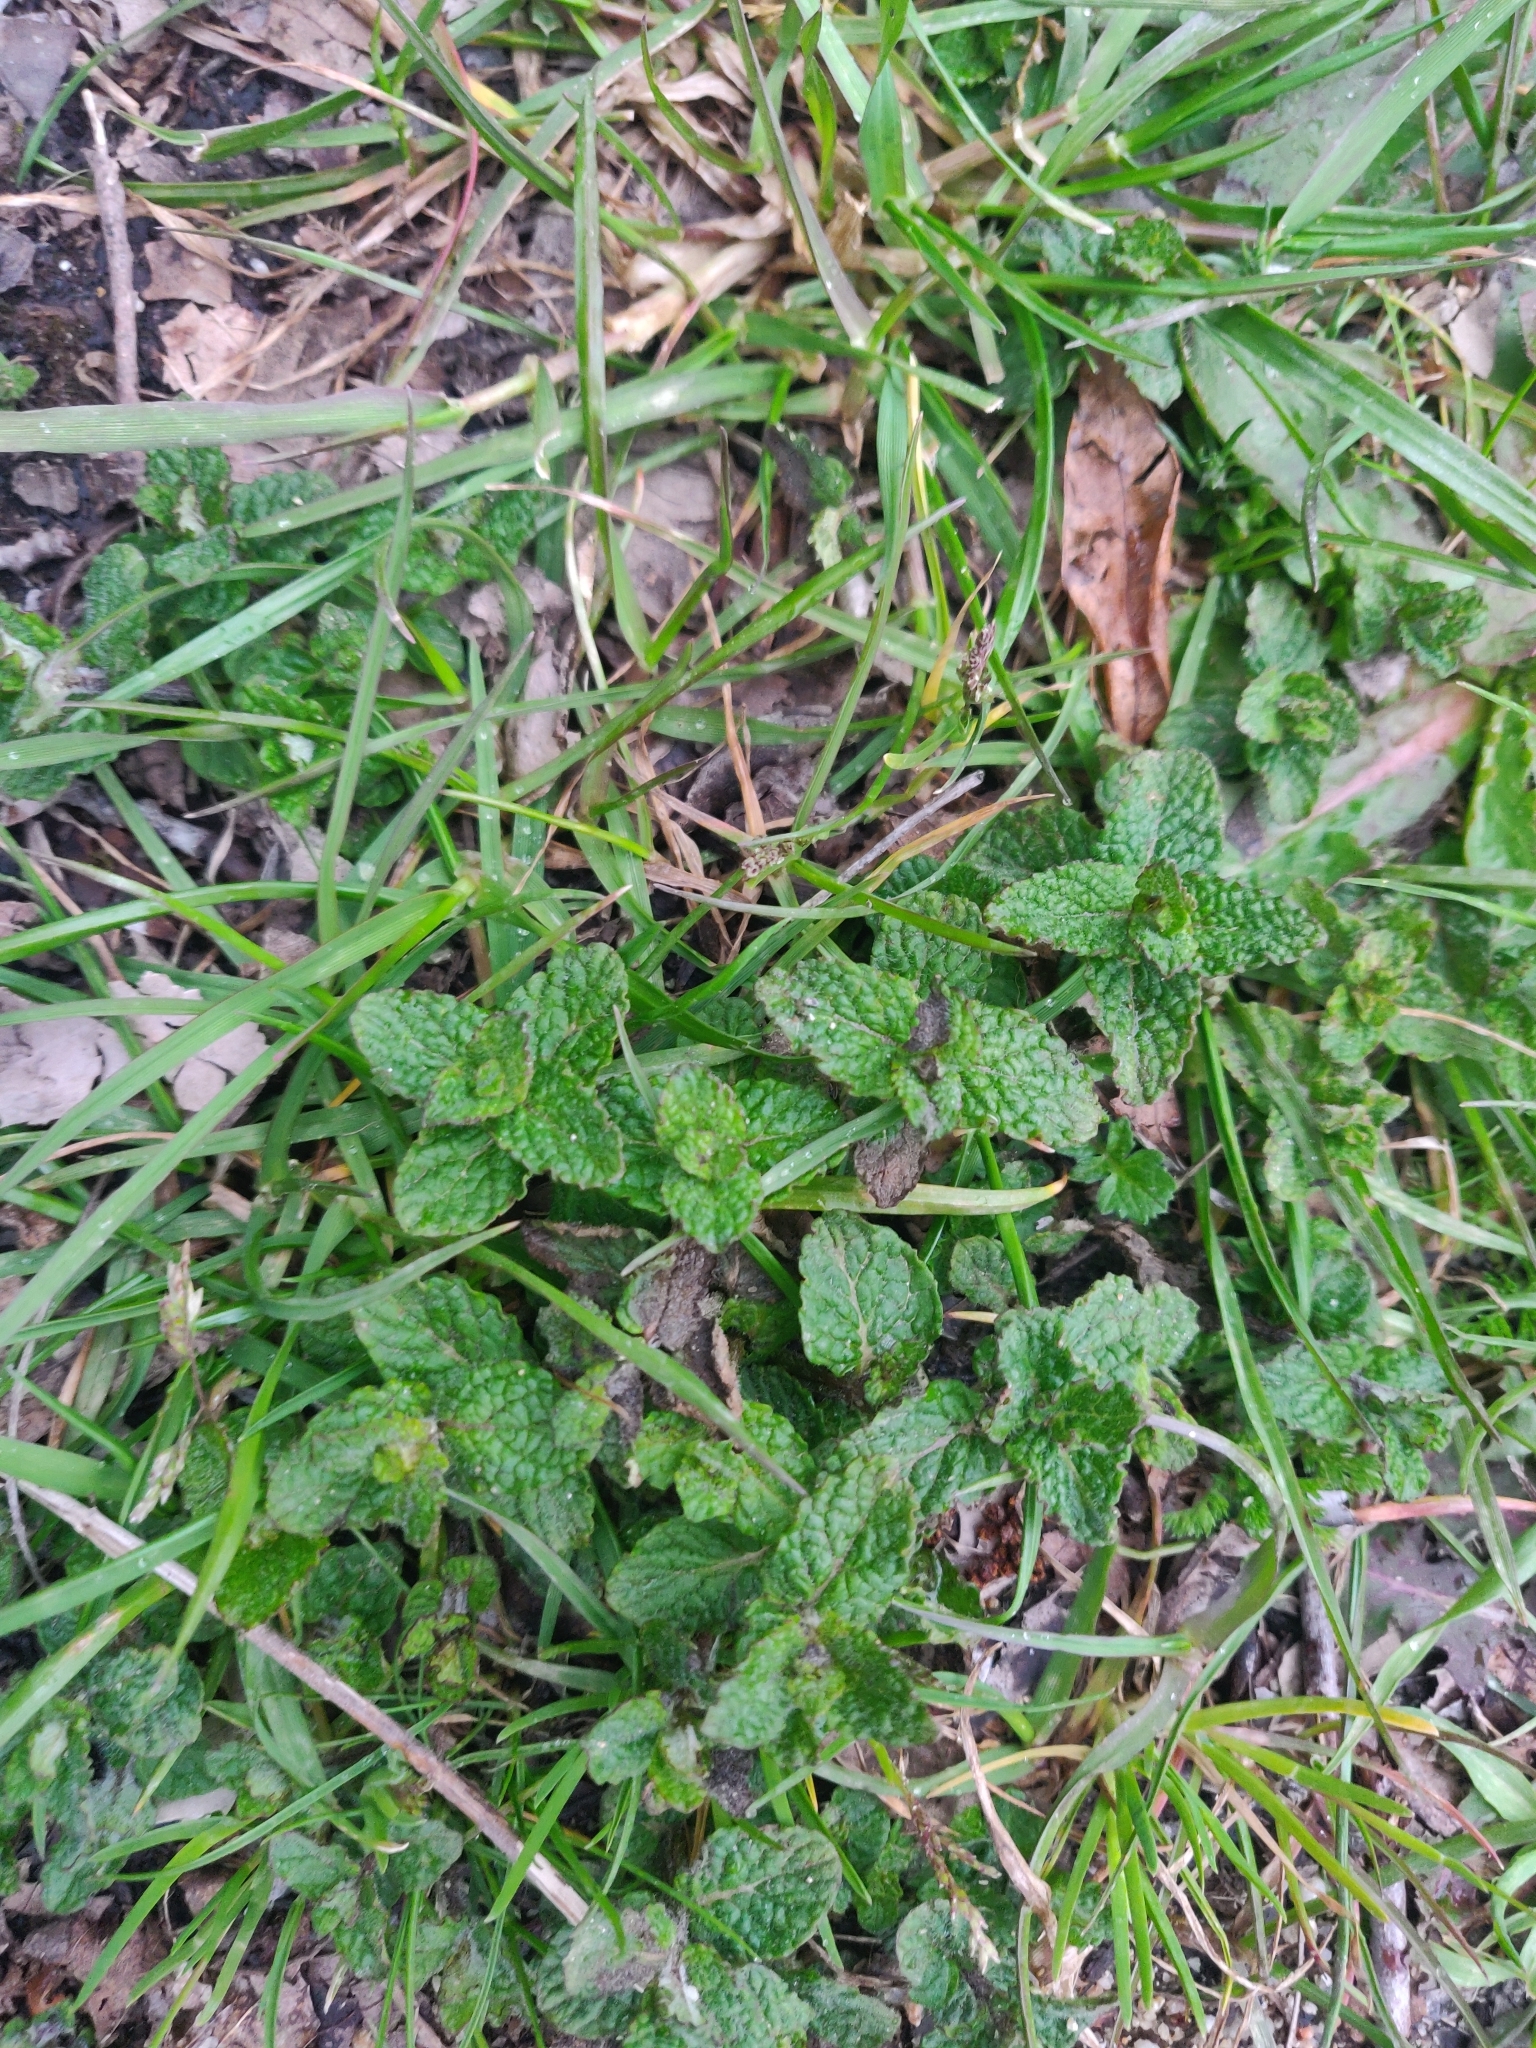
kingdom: Plantae
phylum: Tracheophyta
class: Magnoliopsida
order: Lamiales
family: Lamiaceae
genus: Mentha
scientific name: Mentha suaveolens
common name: Apple mint
